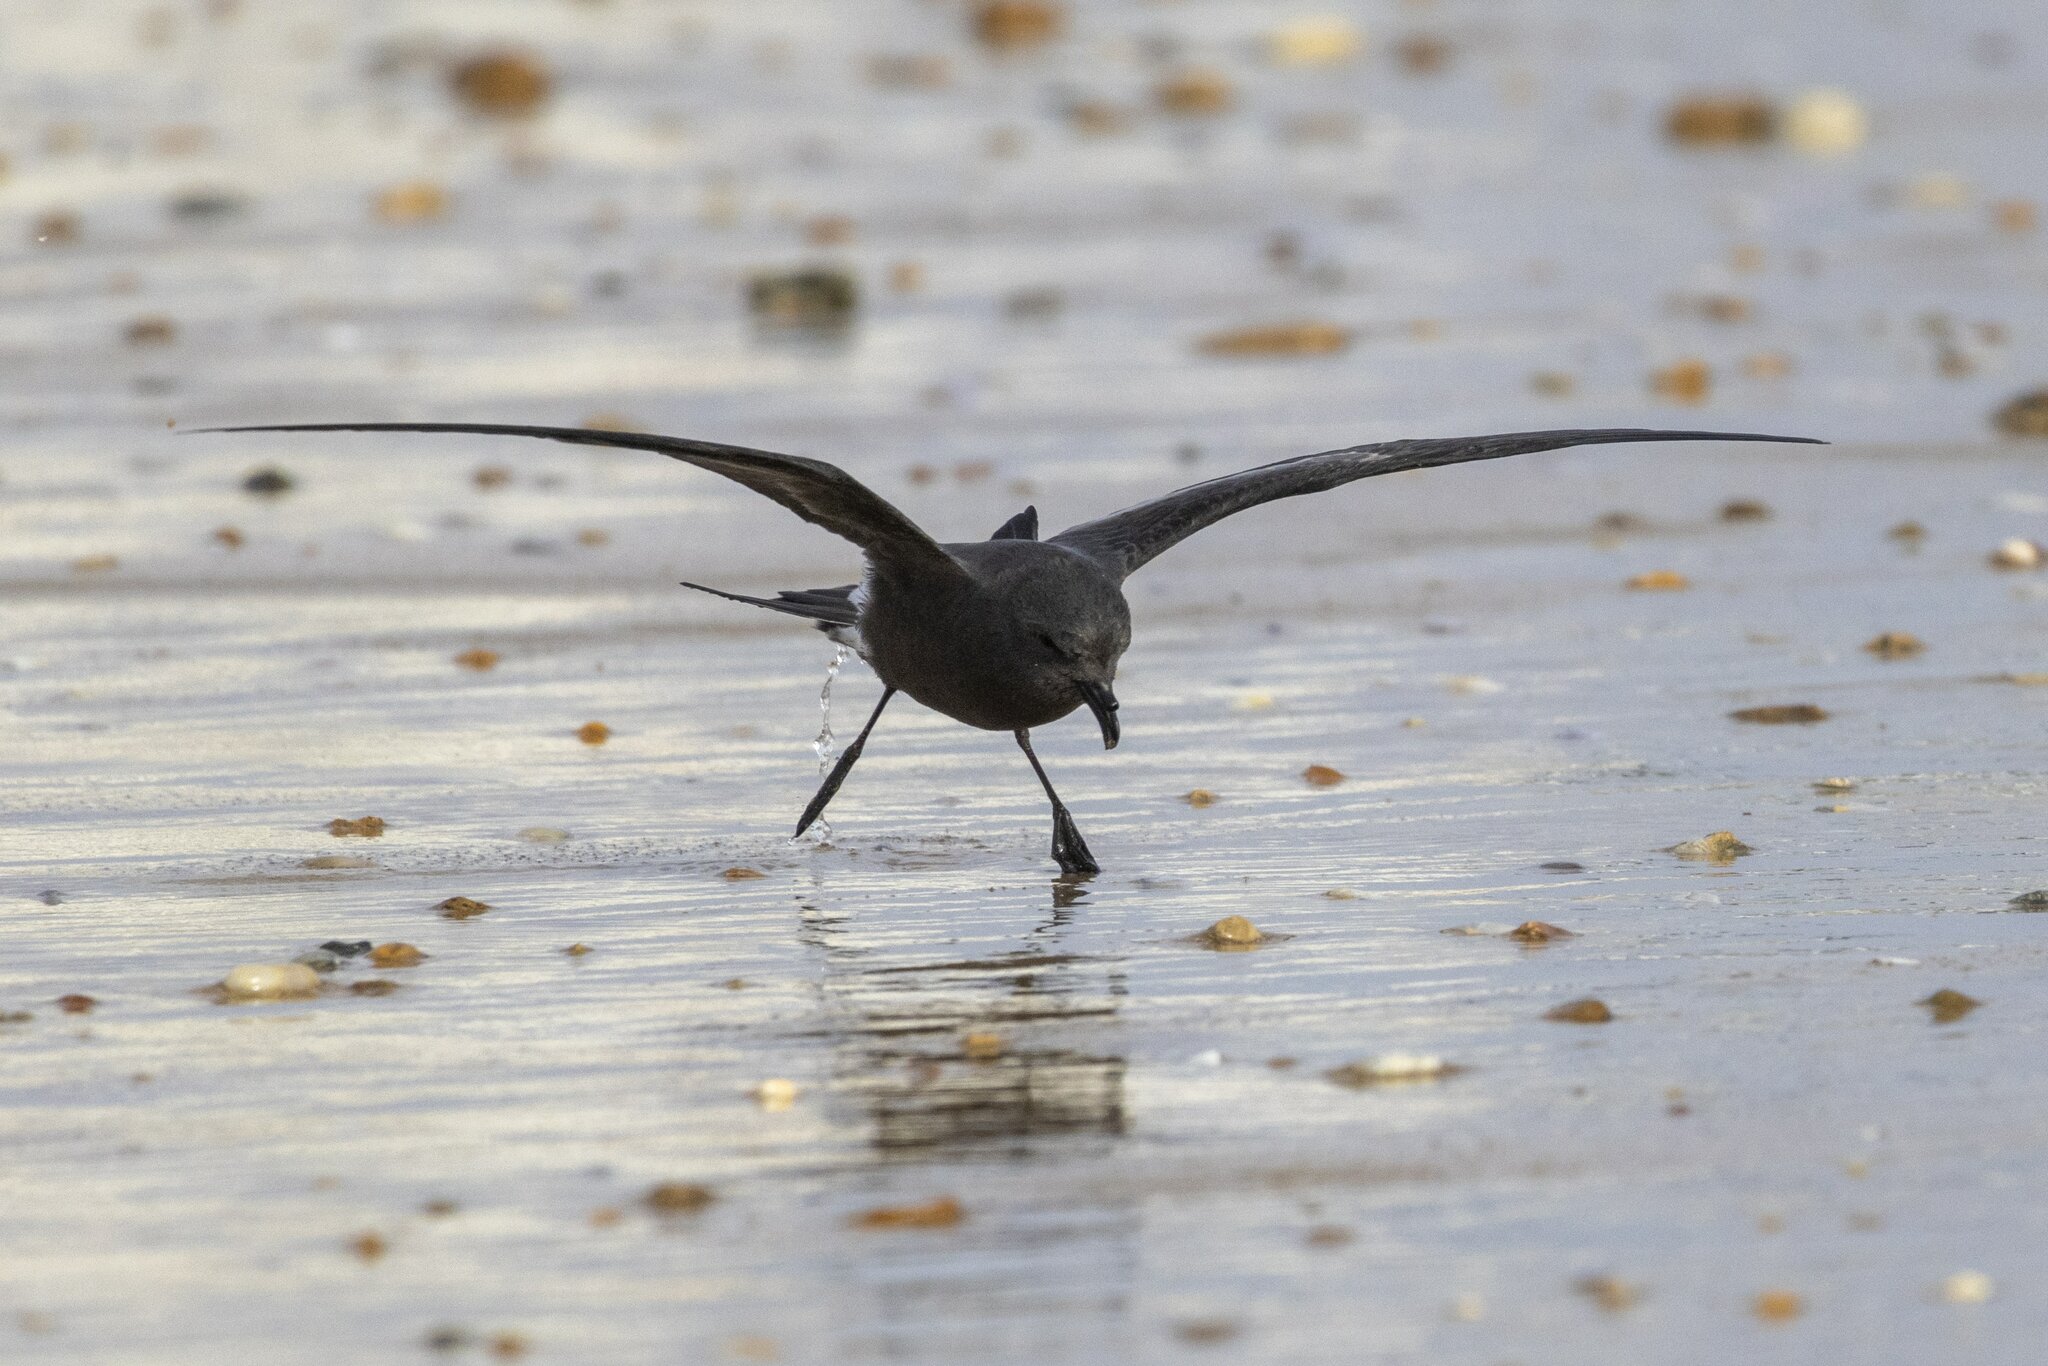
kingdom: Animalia
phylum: Chordata
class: Aves
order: Procellariiformes
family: Hydrobatidae
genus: Oceanodroma
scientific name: Oceanodroma leucorhoa
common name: Leach's storm-petrel
